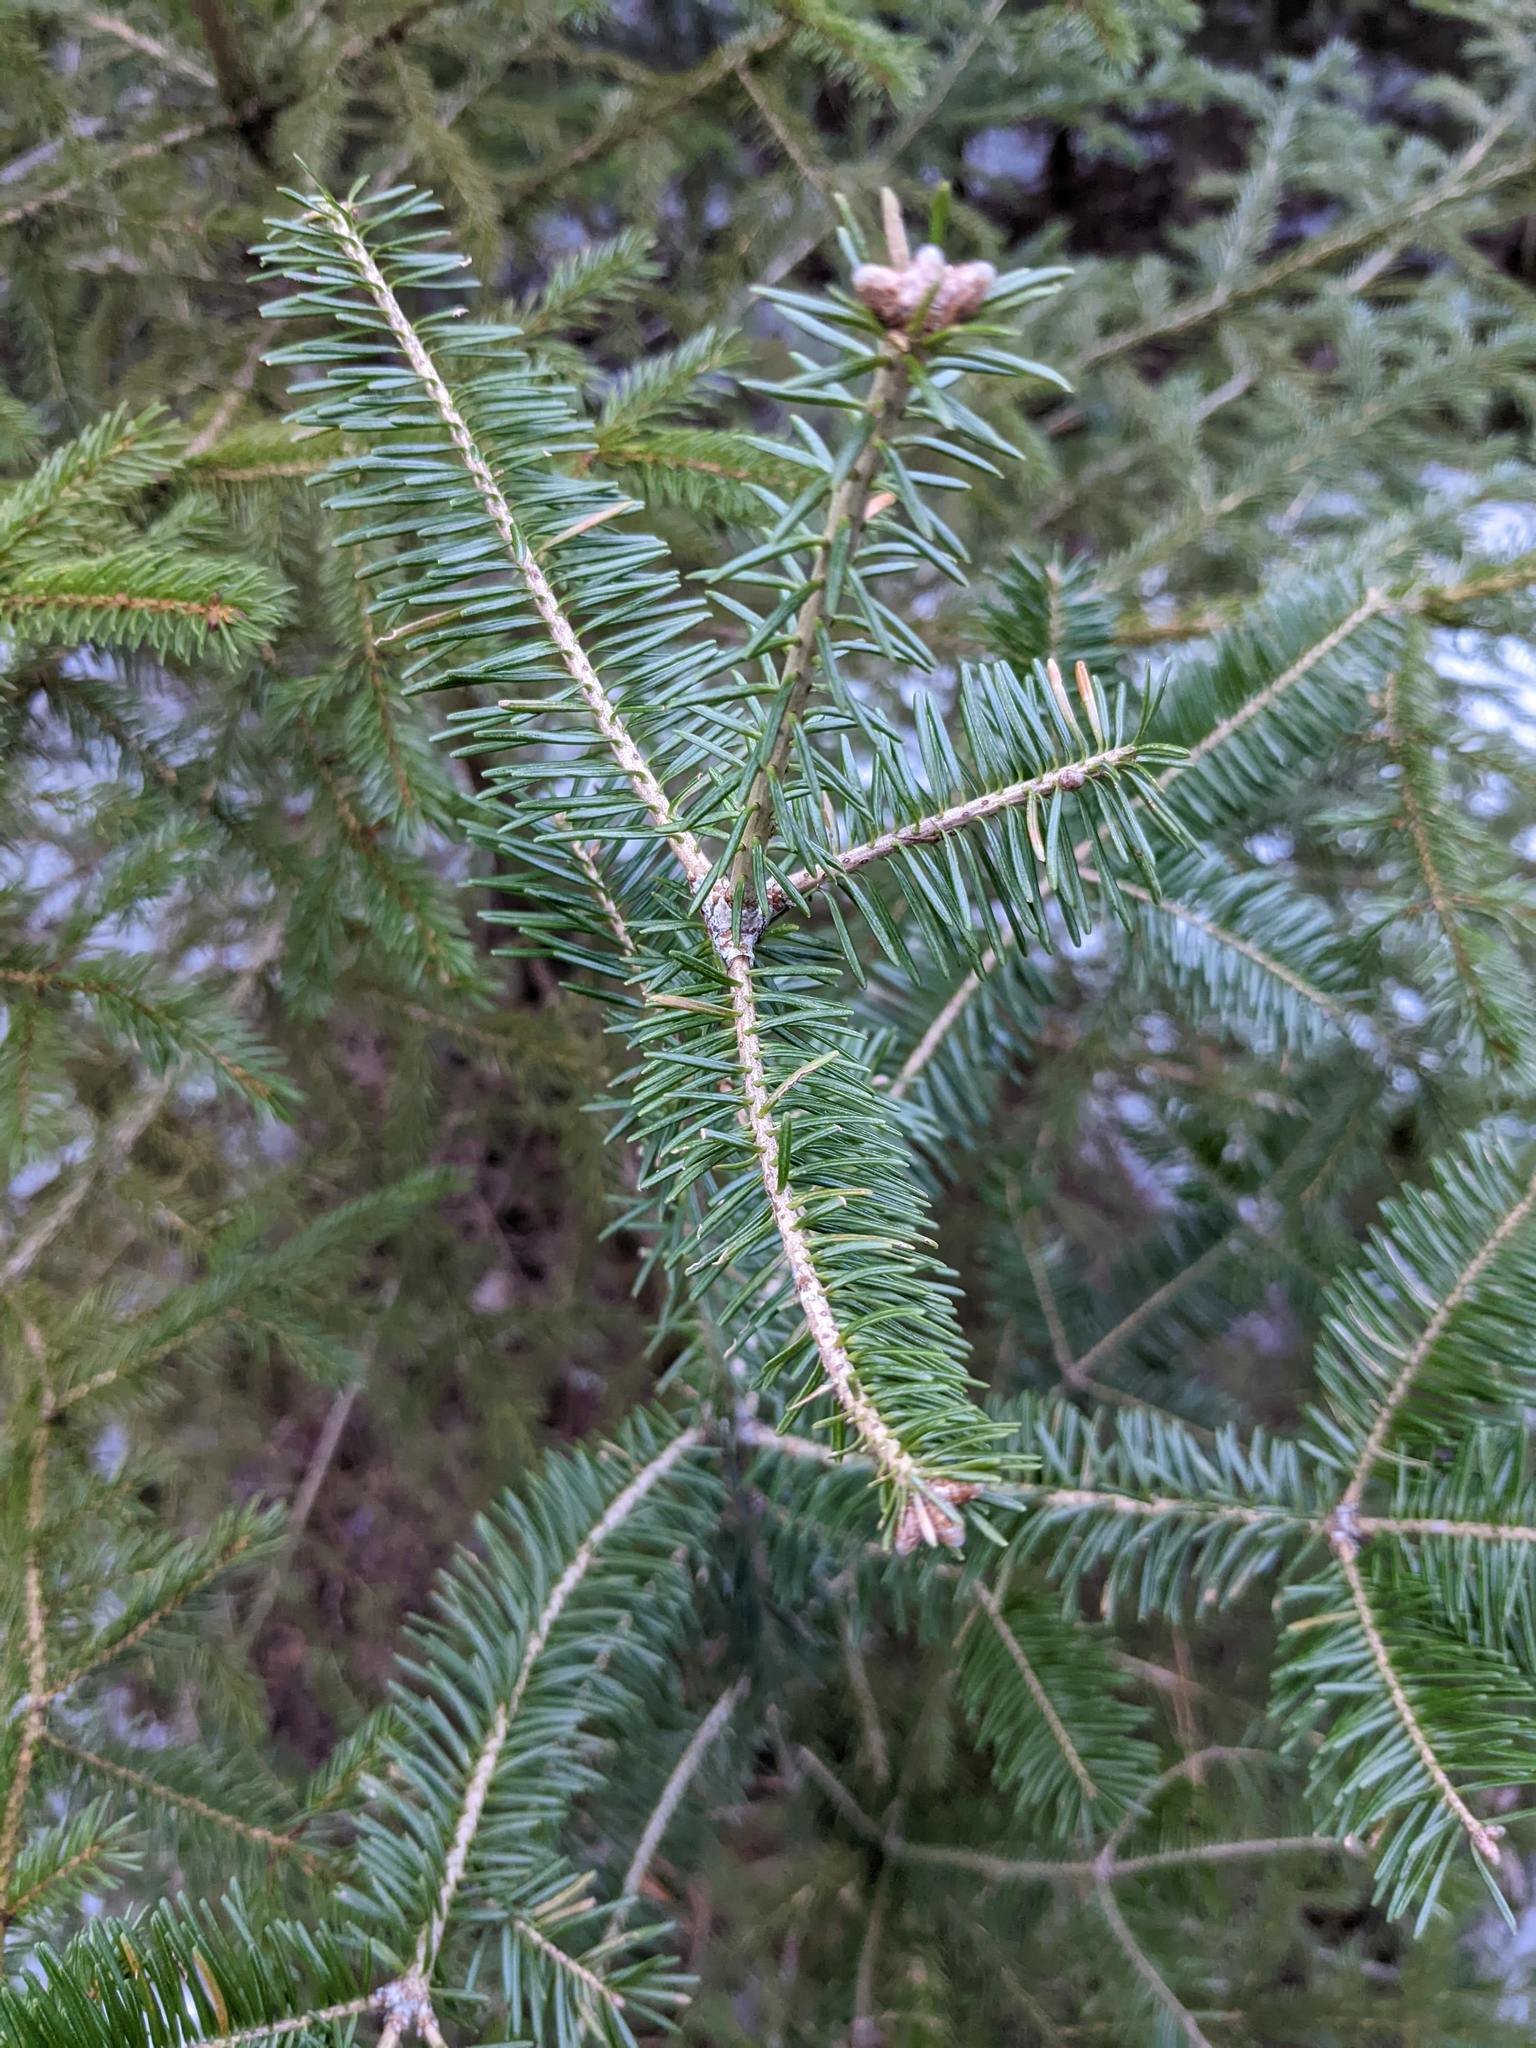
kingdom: Plantae
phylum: Tracheophyta
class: Pinopsida
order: Pinales
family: Pinaceae
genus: Abies
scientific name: Abies balsamea
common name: Balsam fir
